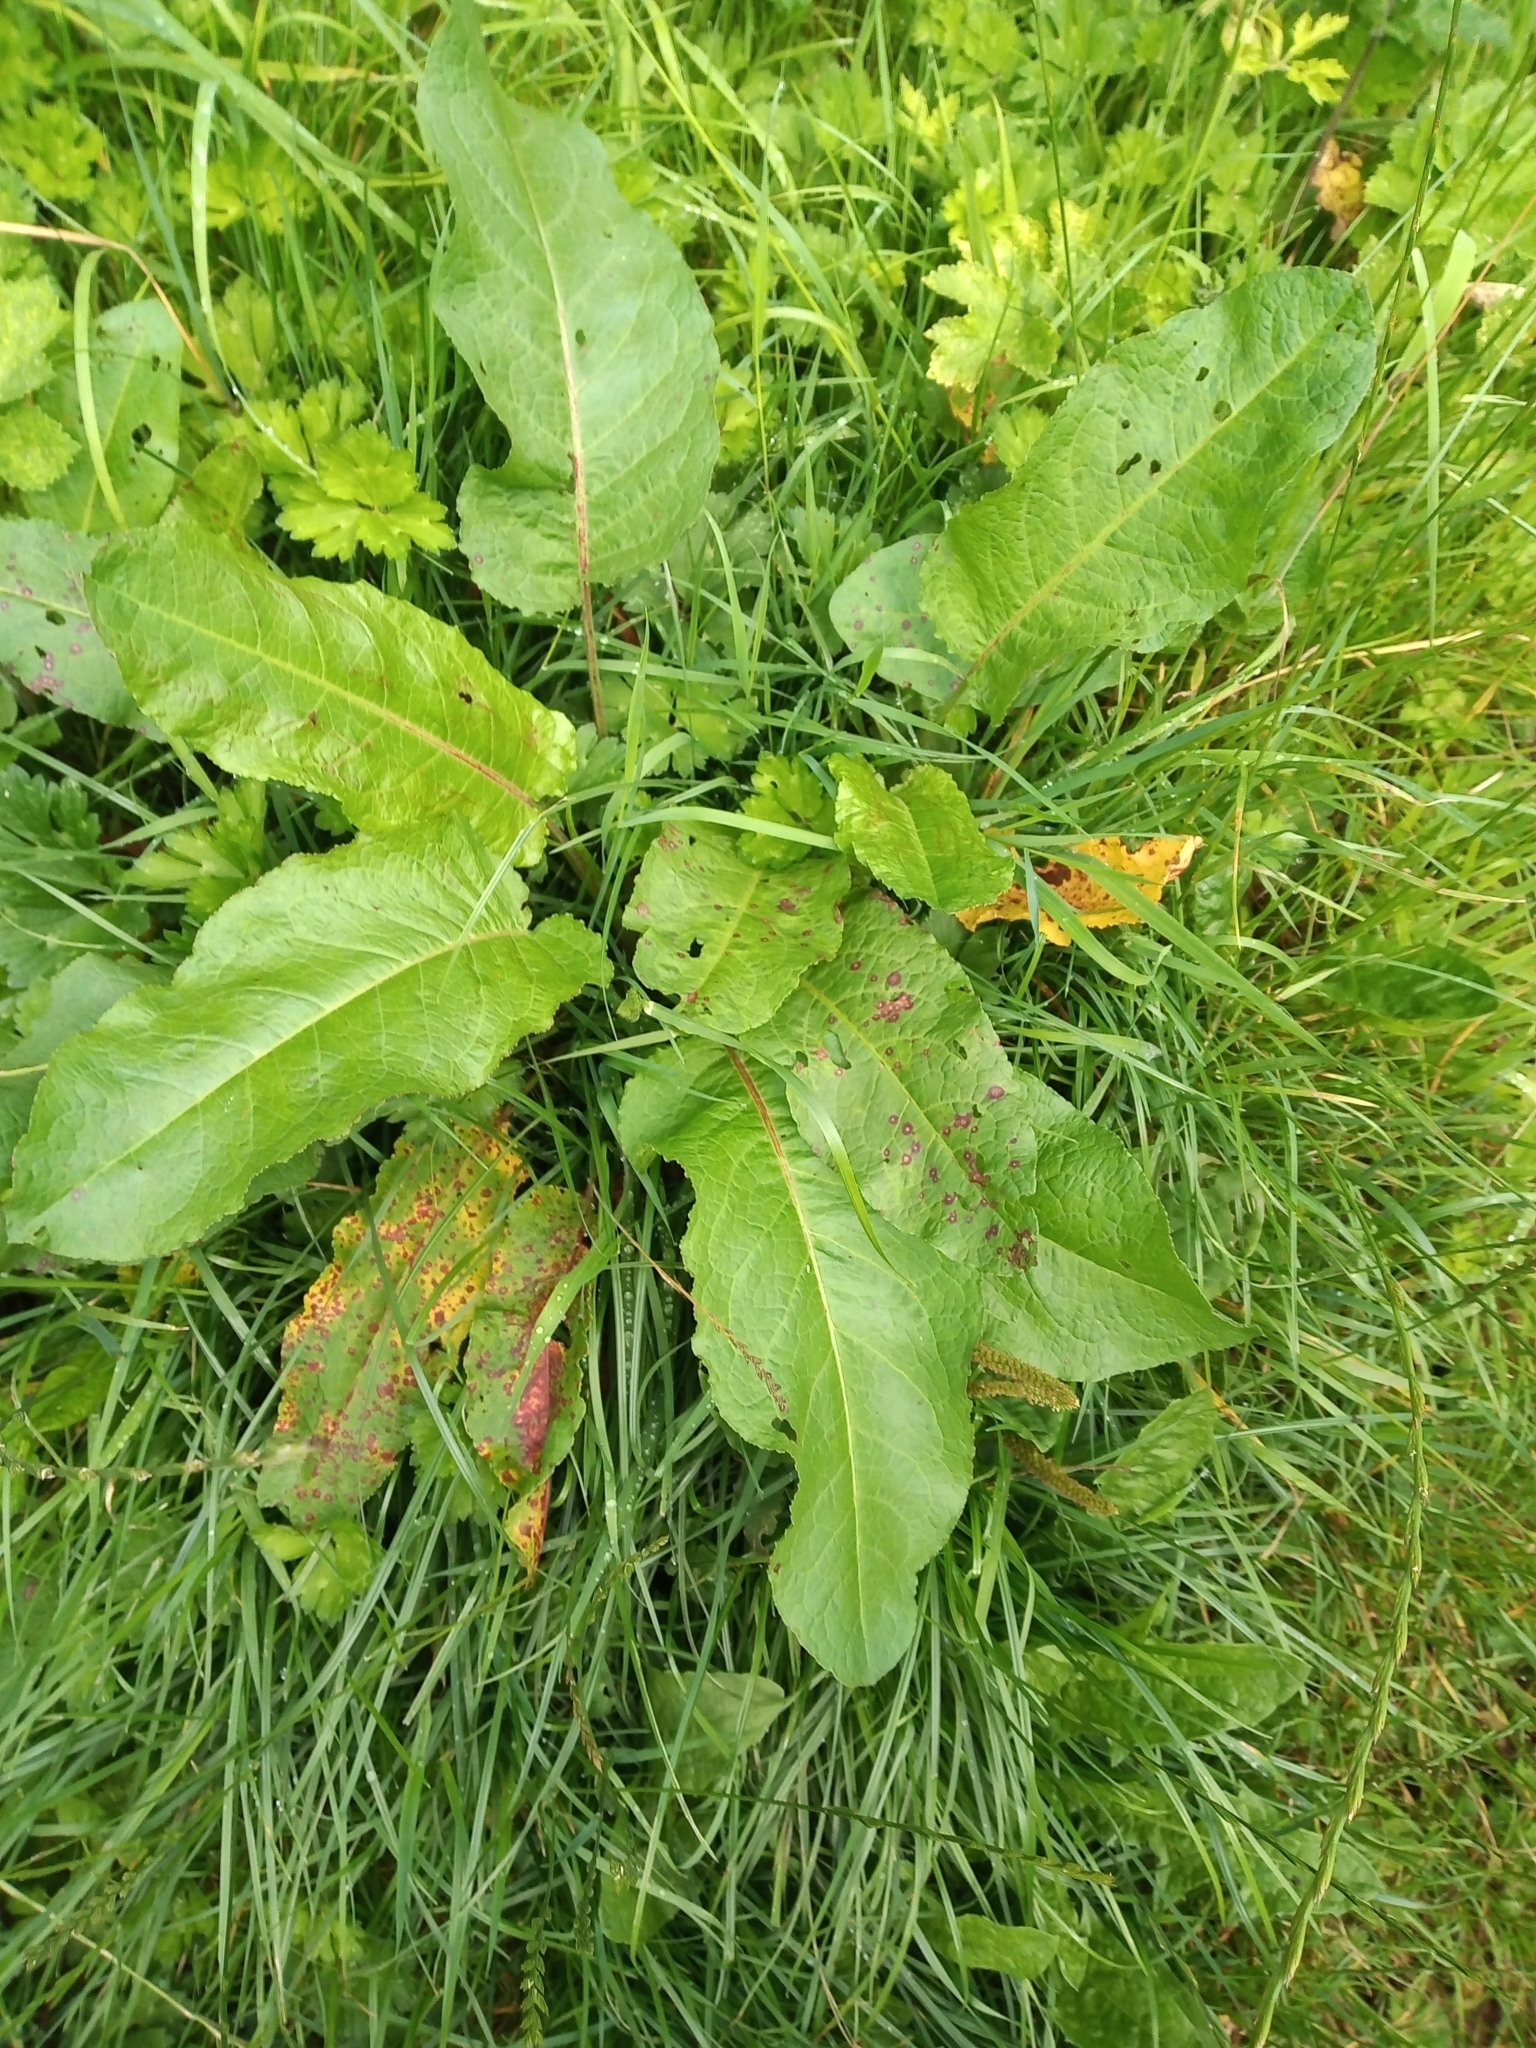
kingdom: Plantae
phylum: Tracheophyta
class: Magnoliopsida
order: Caryophyllales
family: Polygonaceae
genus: Rumex
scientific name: Rumex obtusifolius
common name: Bitter dock
